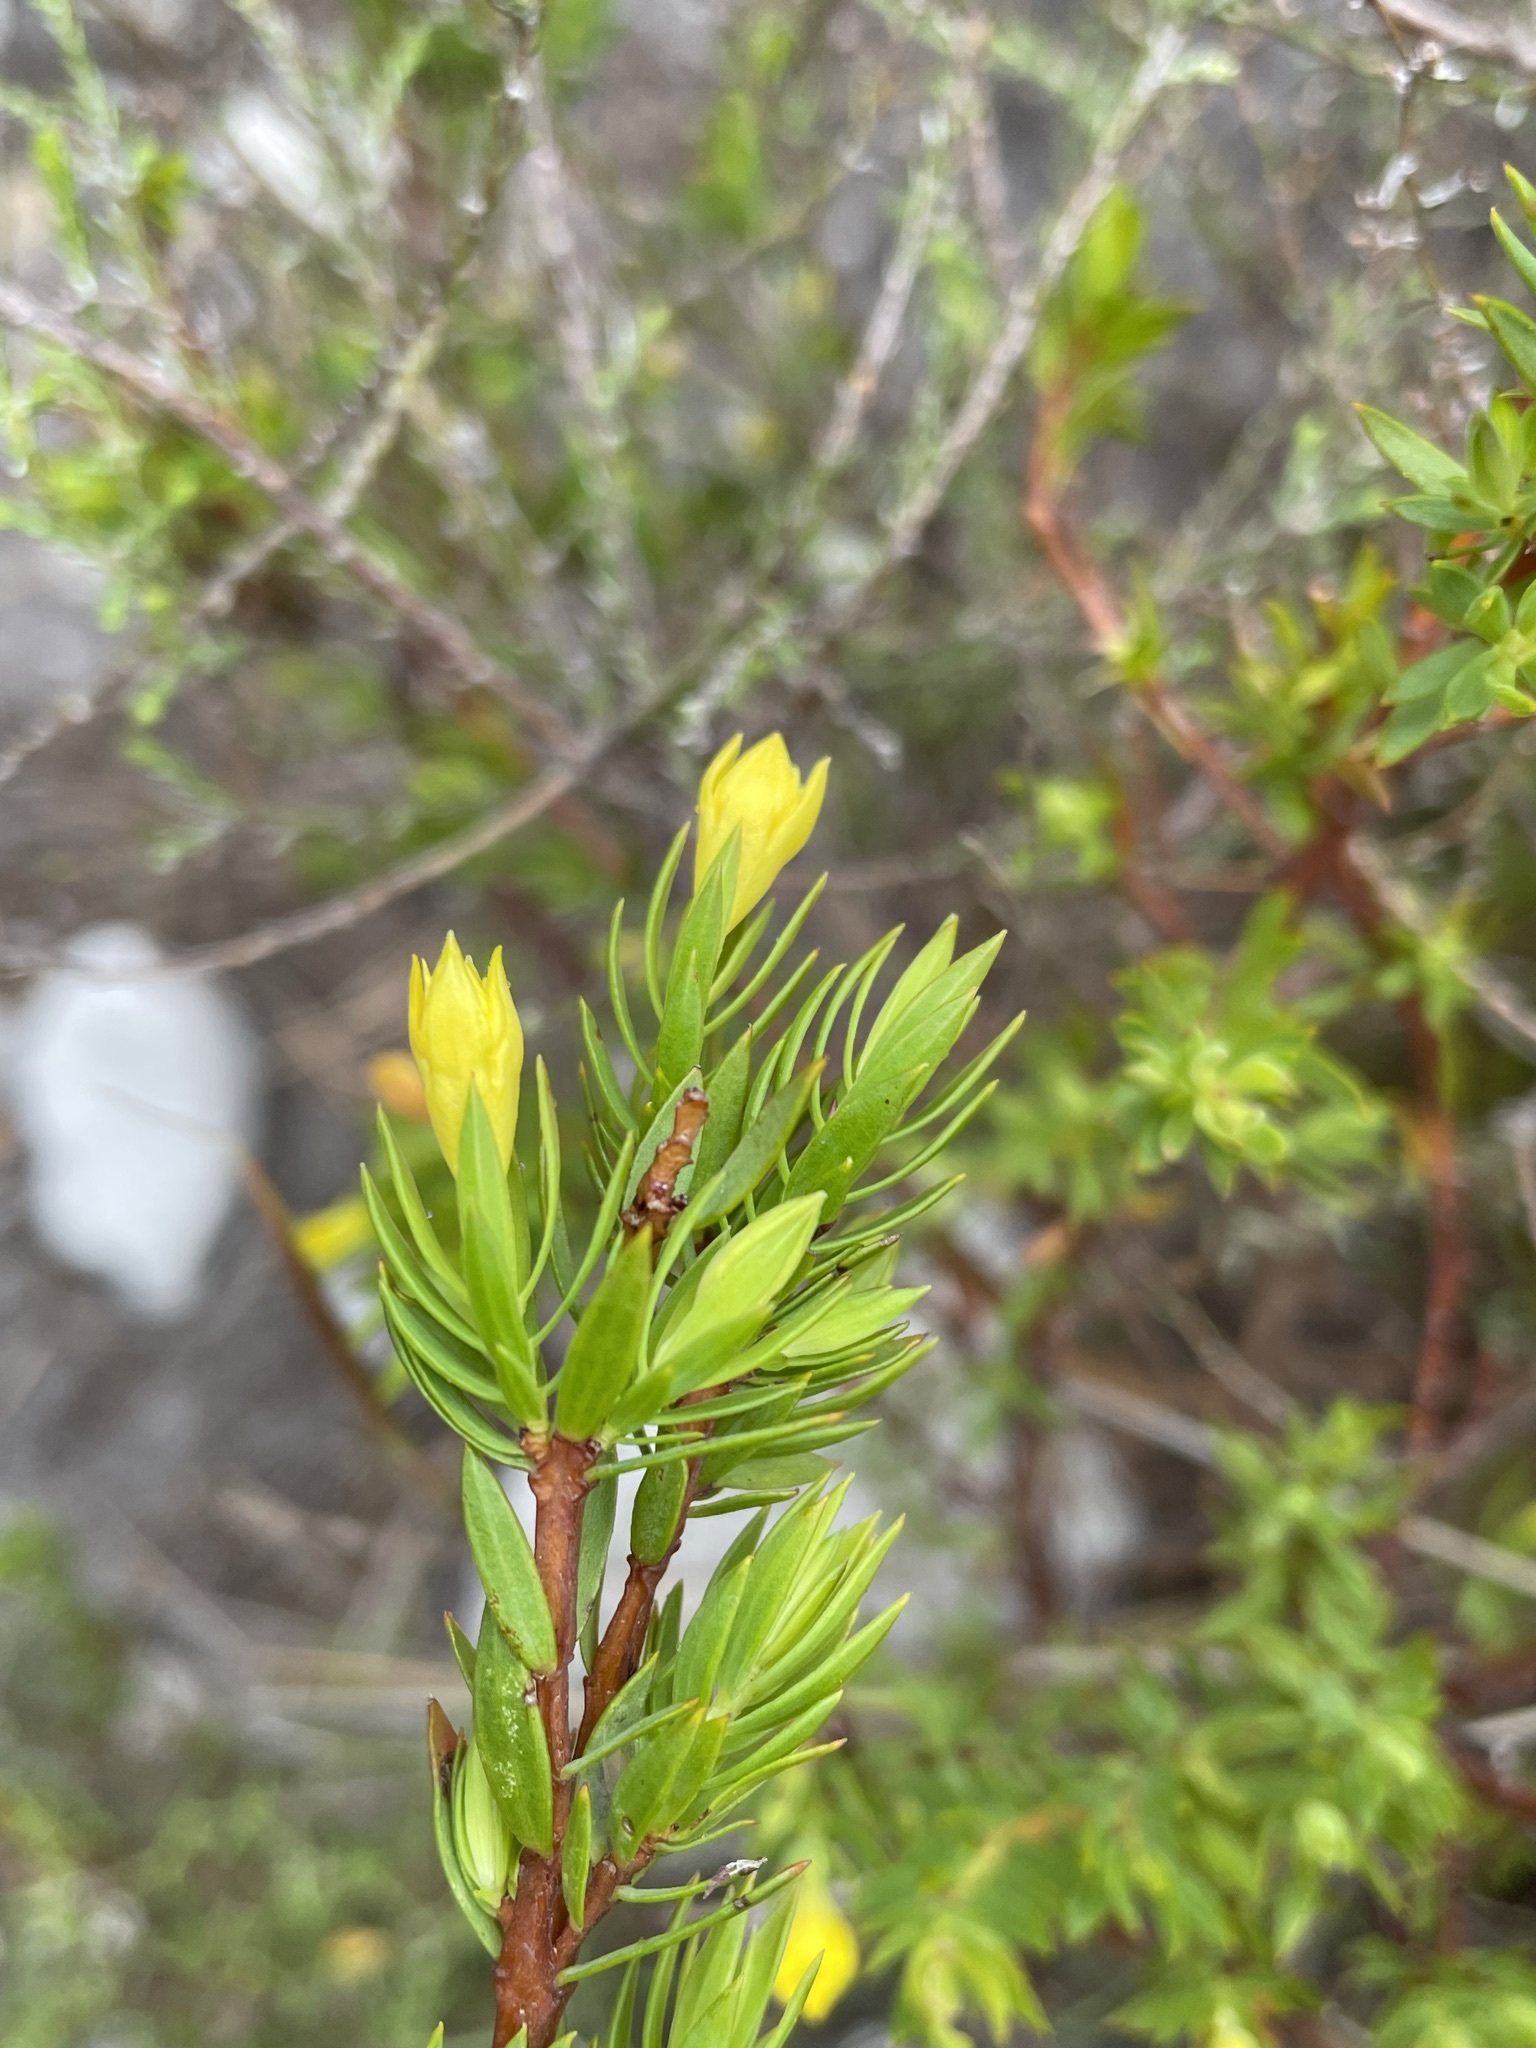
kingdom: Plantae
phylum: Tracheophyta
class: Magnoliopsida
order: Malvales
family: Thymelaeaceae
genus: Gnidia
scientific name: Gnidia juniperifolia
